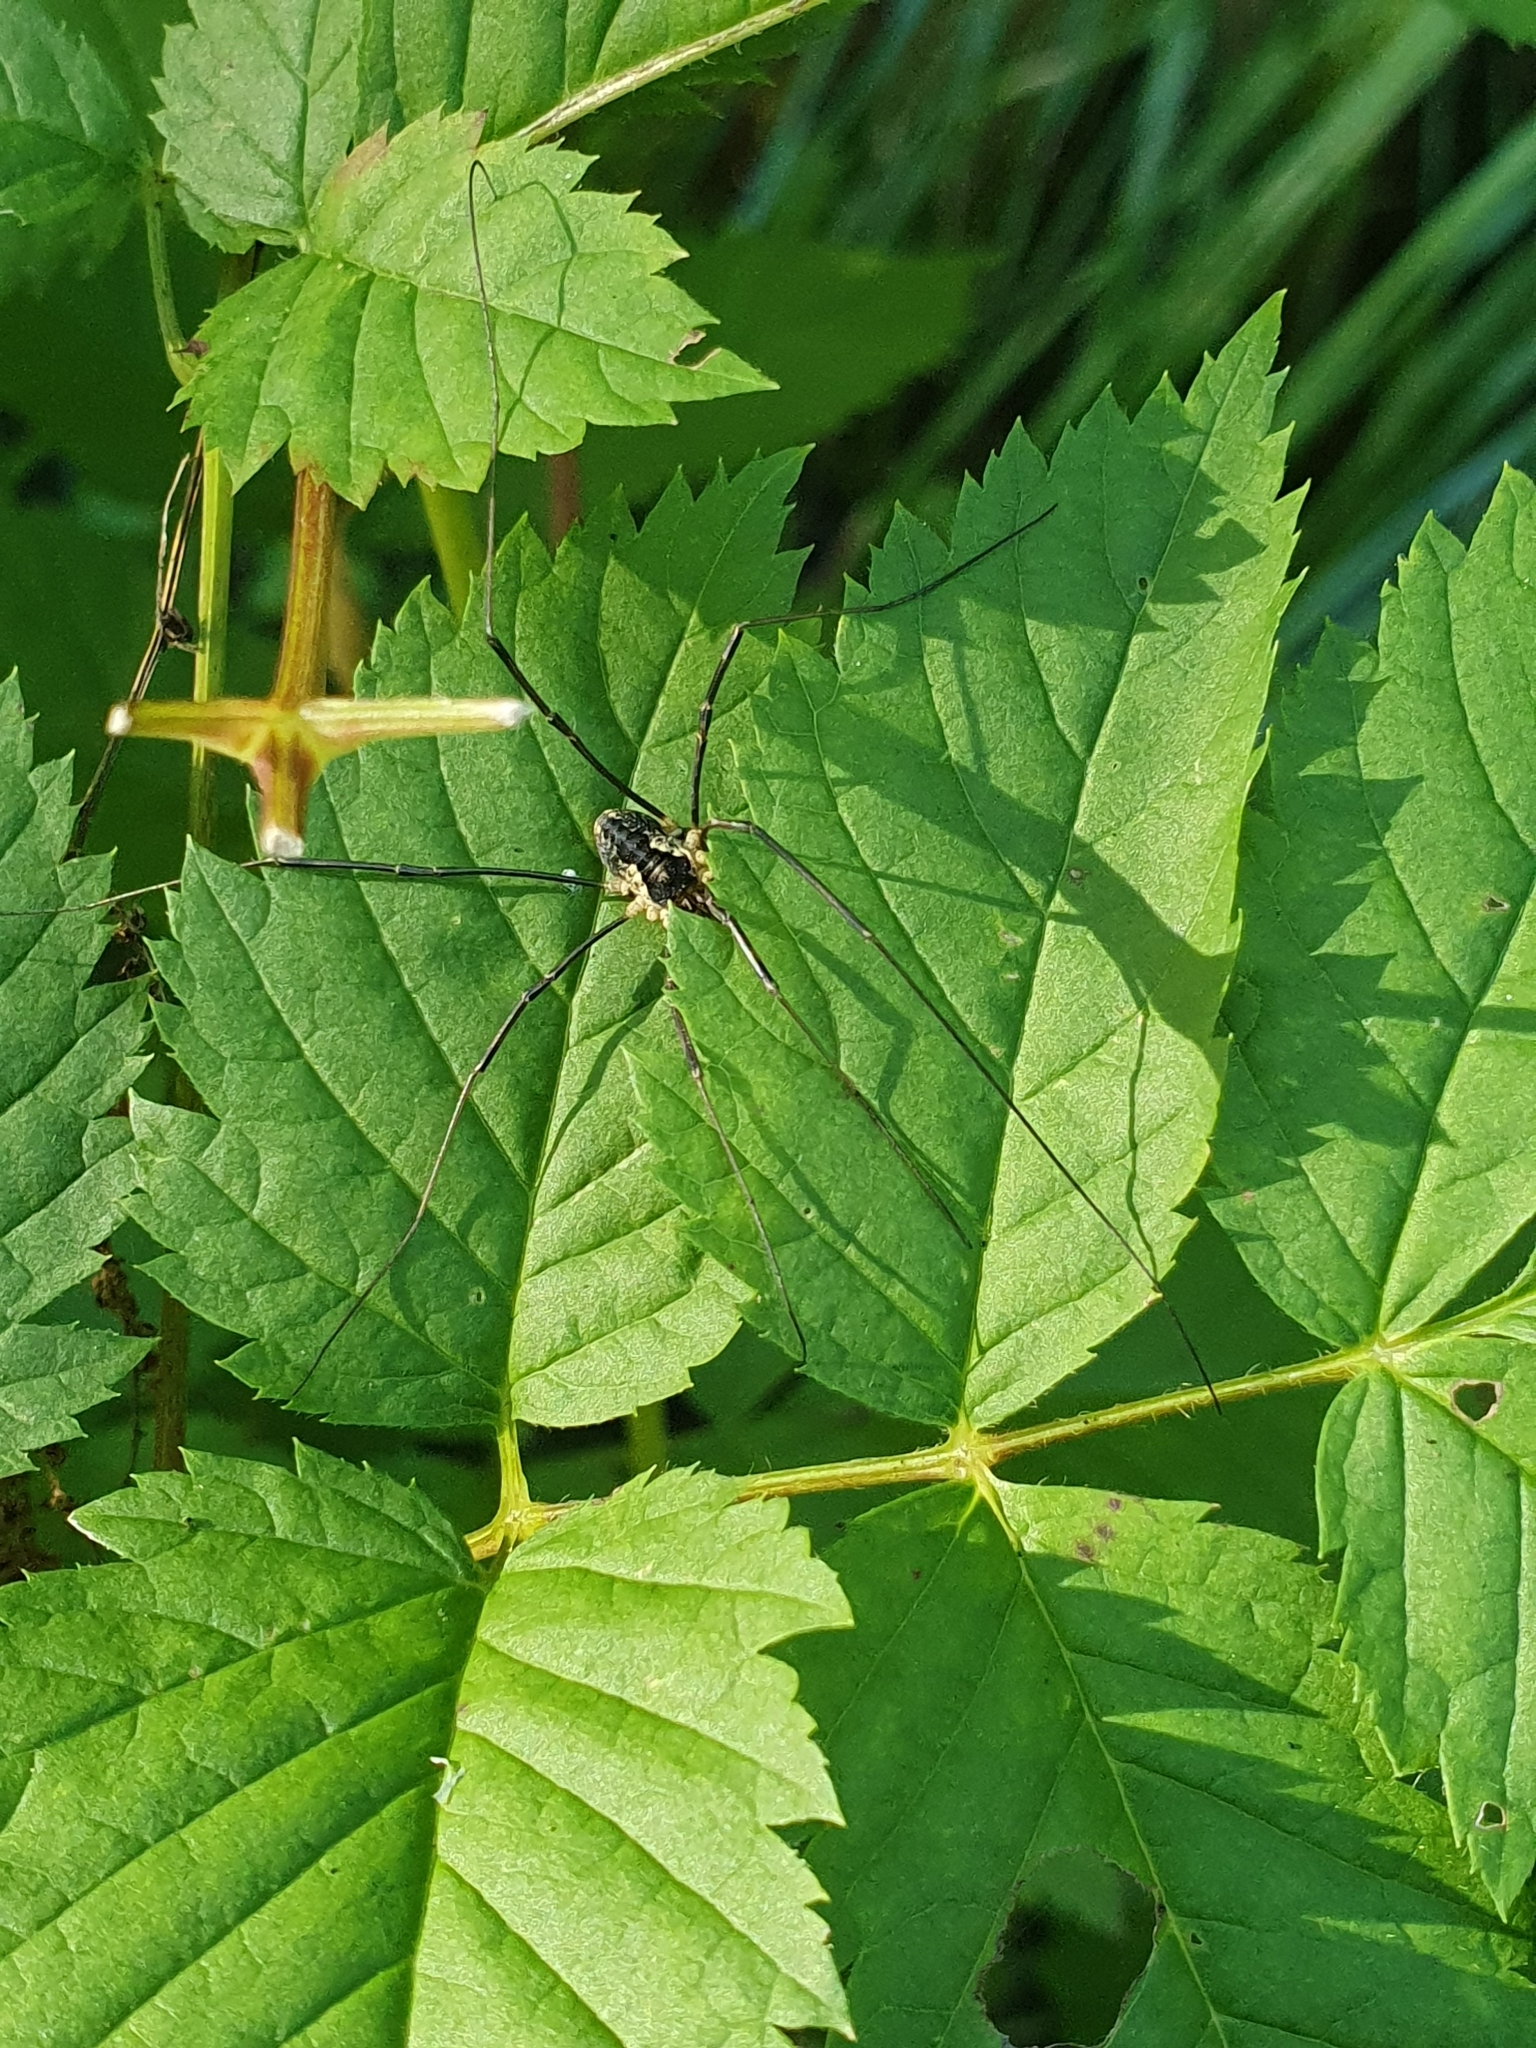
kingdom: Animalia
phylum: Arthropoda
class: Arachnida
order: Opiliones
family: Phalangiidae
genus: Mitopus
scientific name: Mitopus morio
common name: Saddleback harvestman
